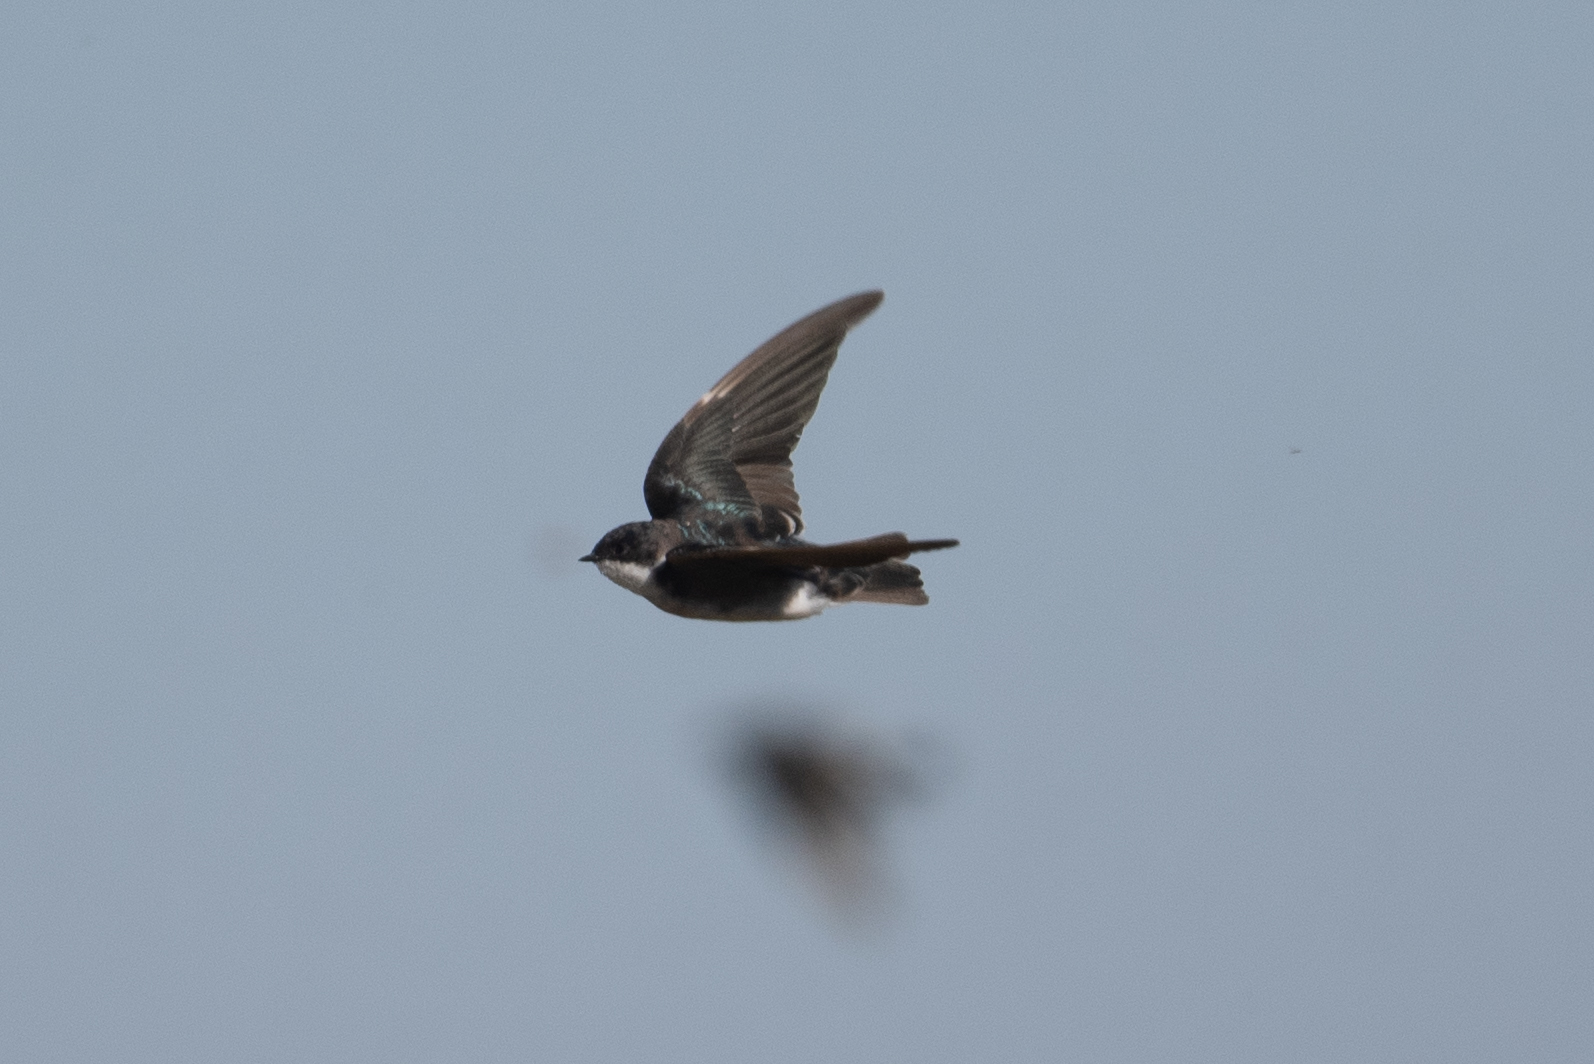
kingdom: Animalia
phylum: Chordata
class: Aves
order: Passeriformes
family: Hirundinidae
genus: Tachycineta
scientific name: Tachycineta bicolor
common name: Tree swallow
